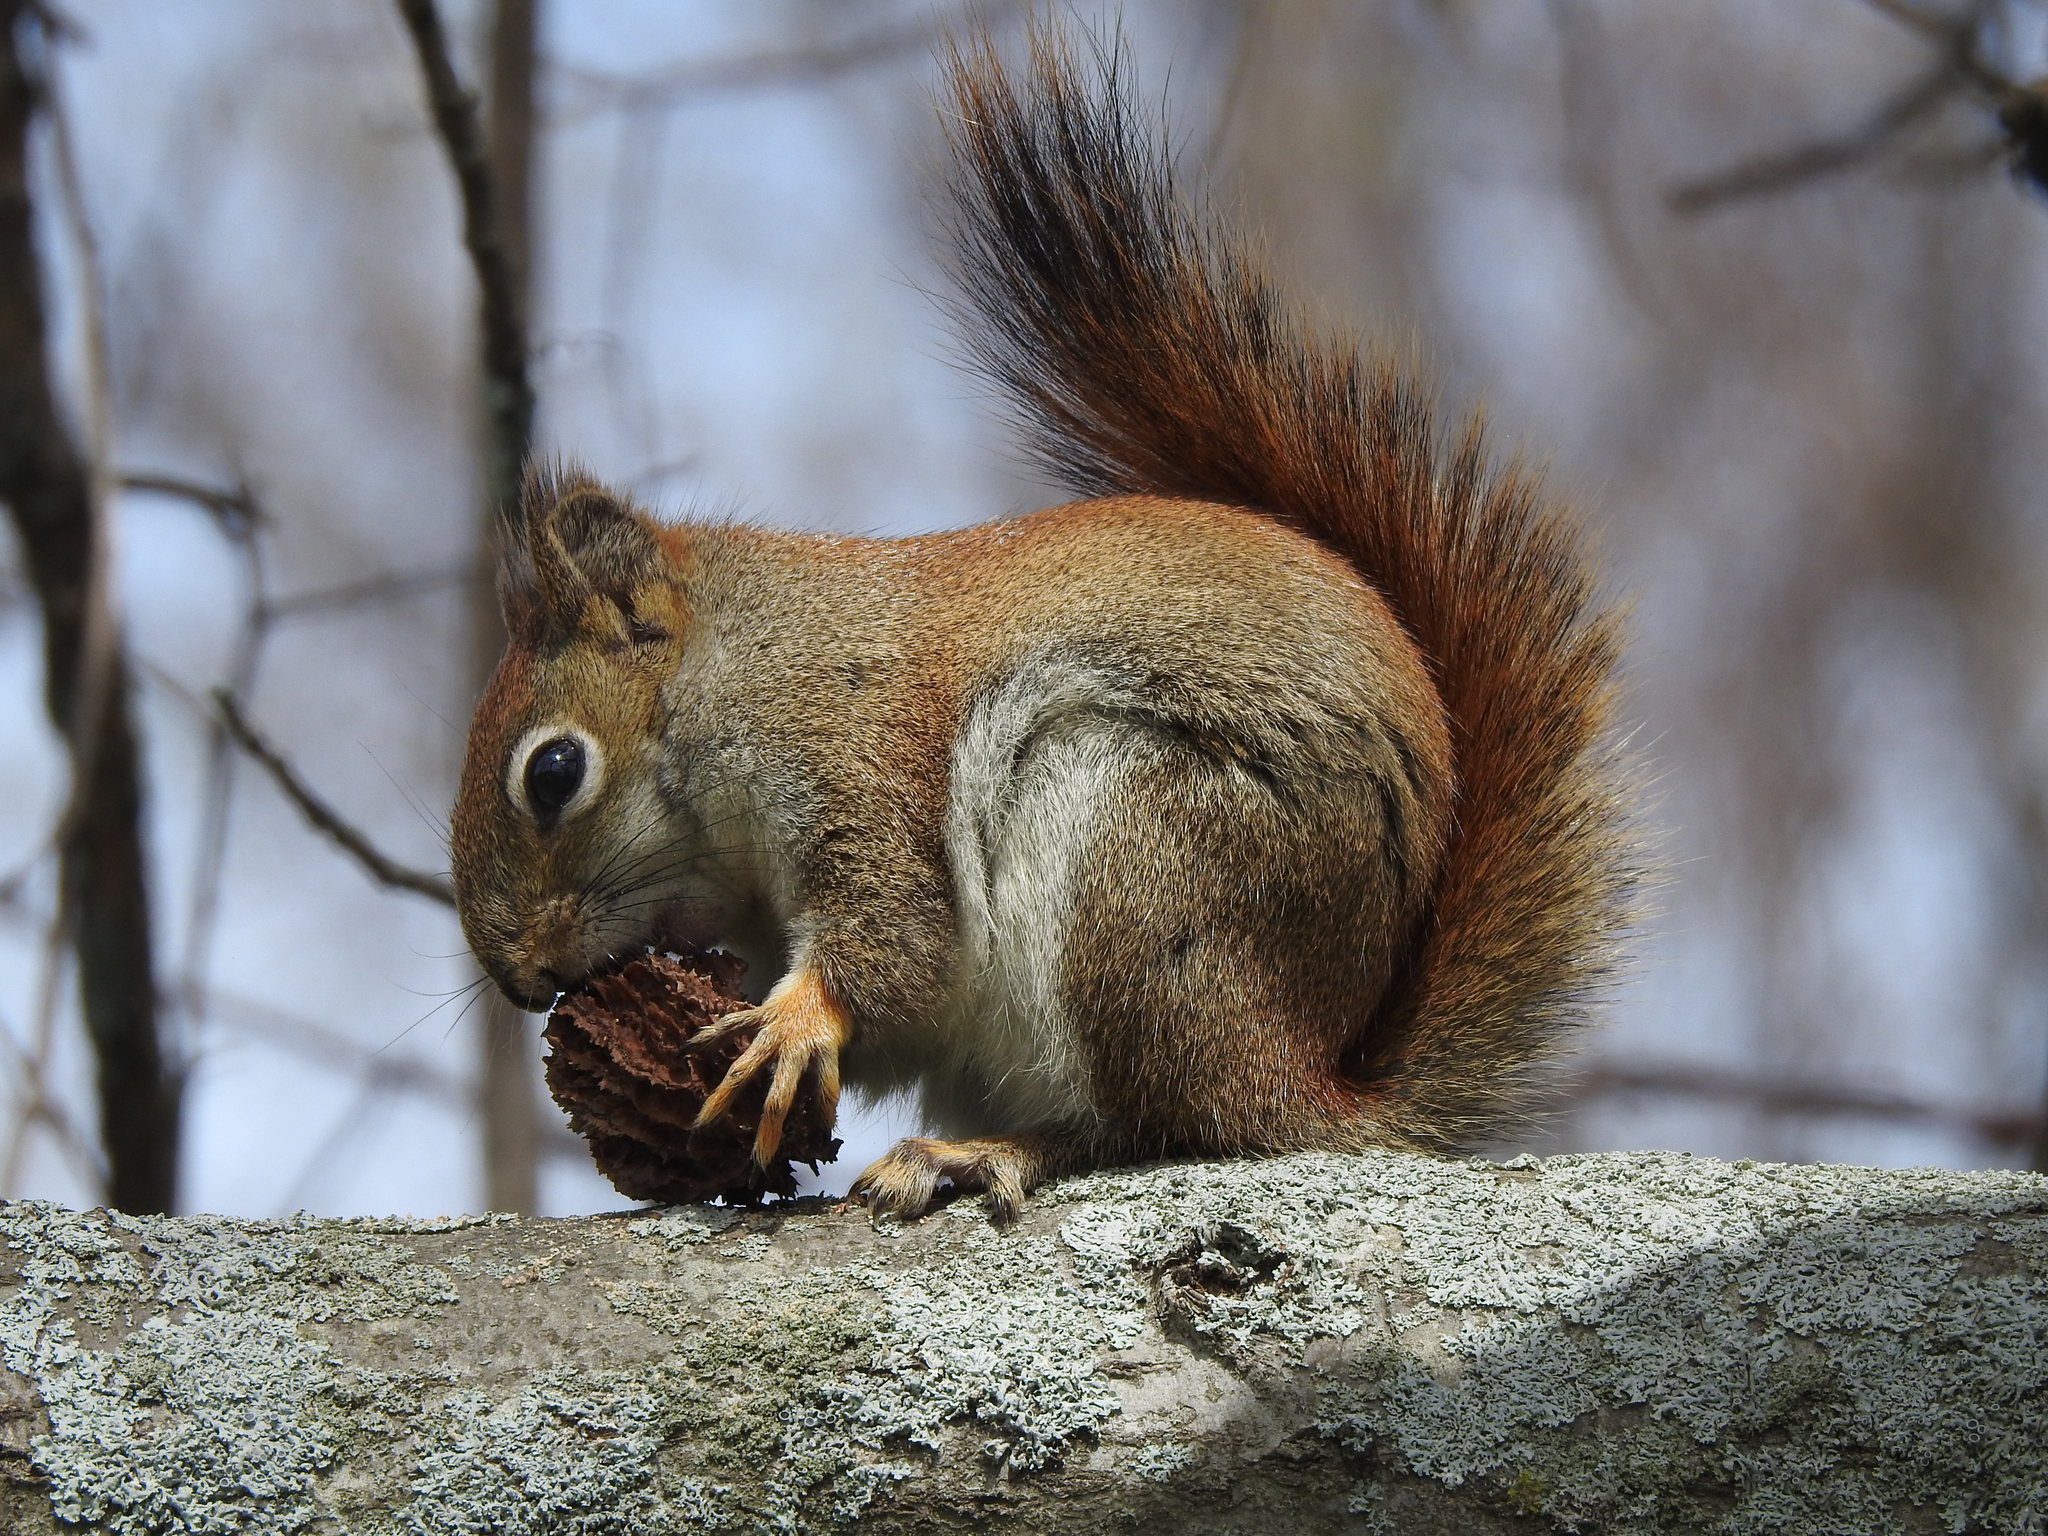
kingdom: Animalia
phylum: Chordata
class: Mammalia
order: Rodentia
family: Sciuridae
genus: Tamiasciurus
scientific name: Tamiasciurus hudsonicus
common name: Red squirrel
